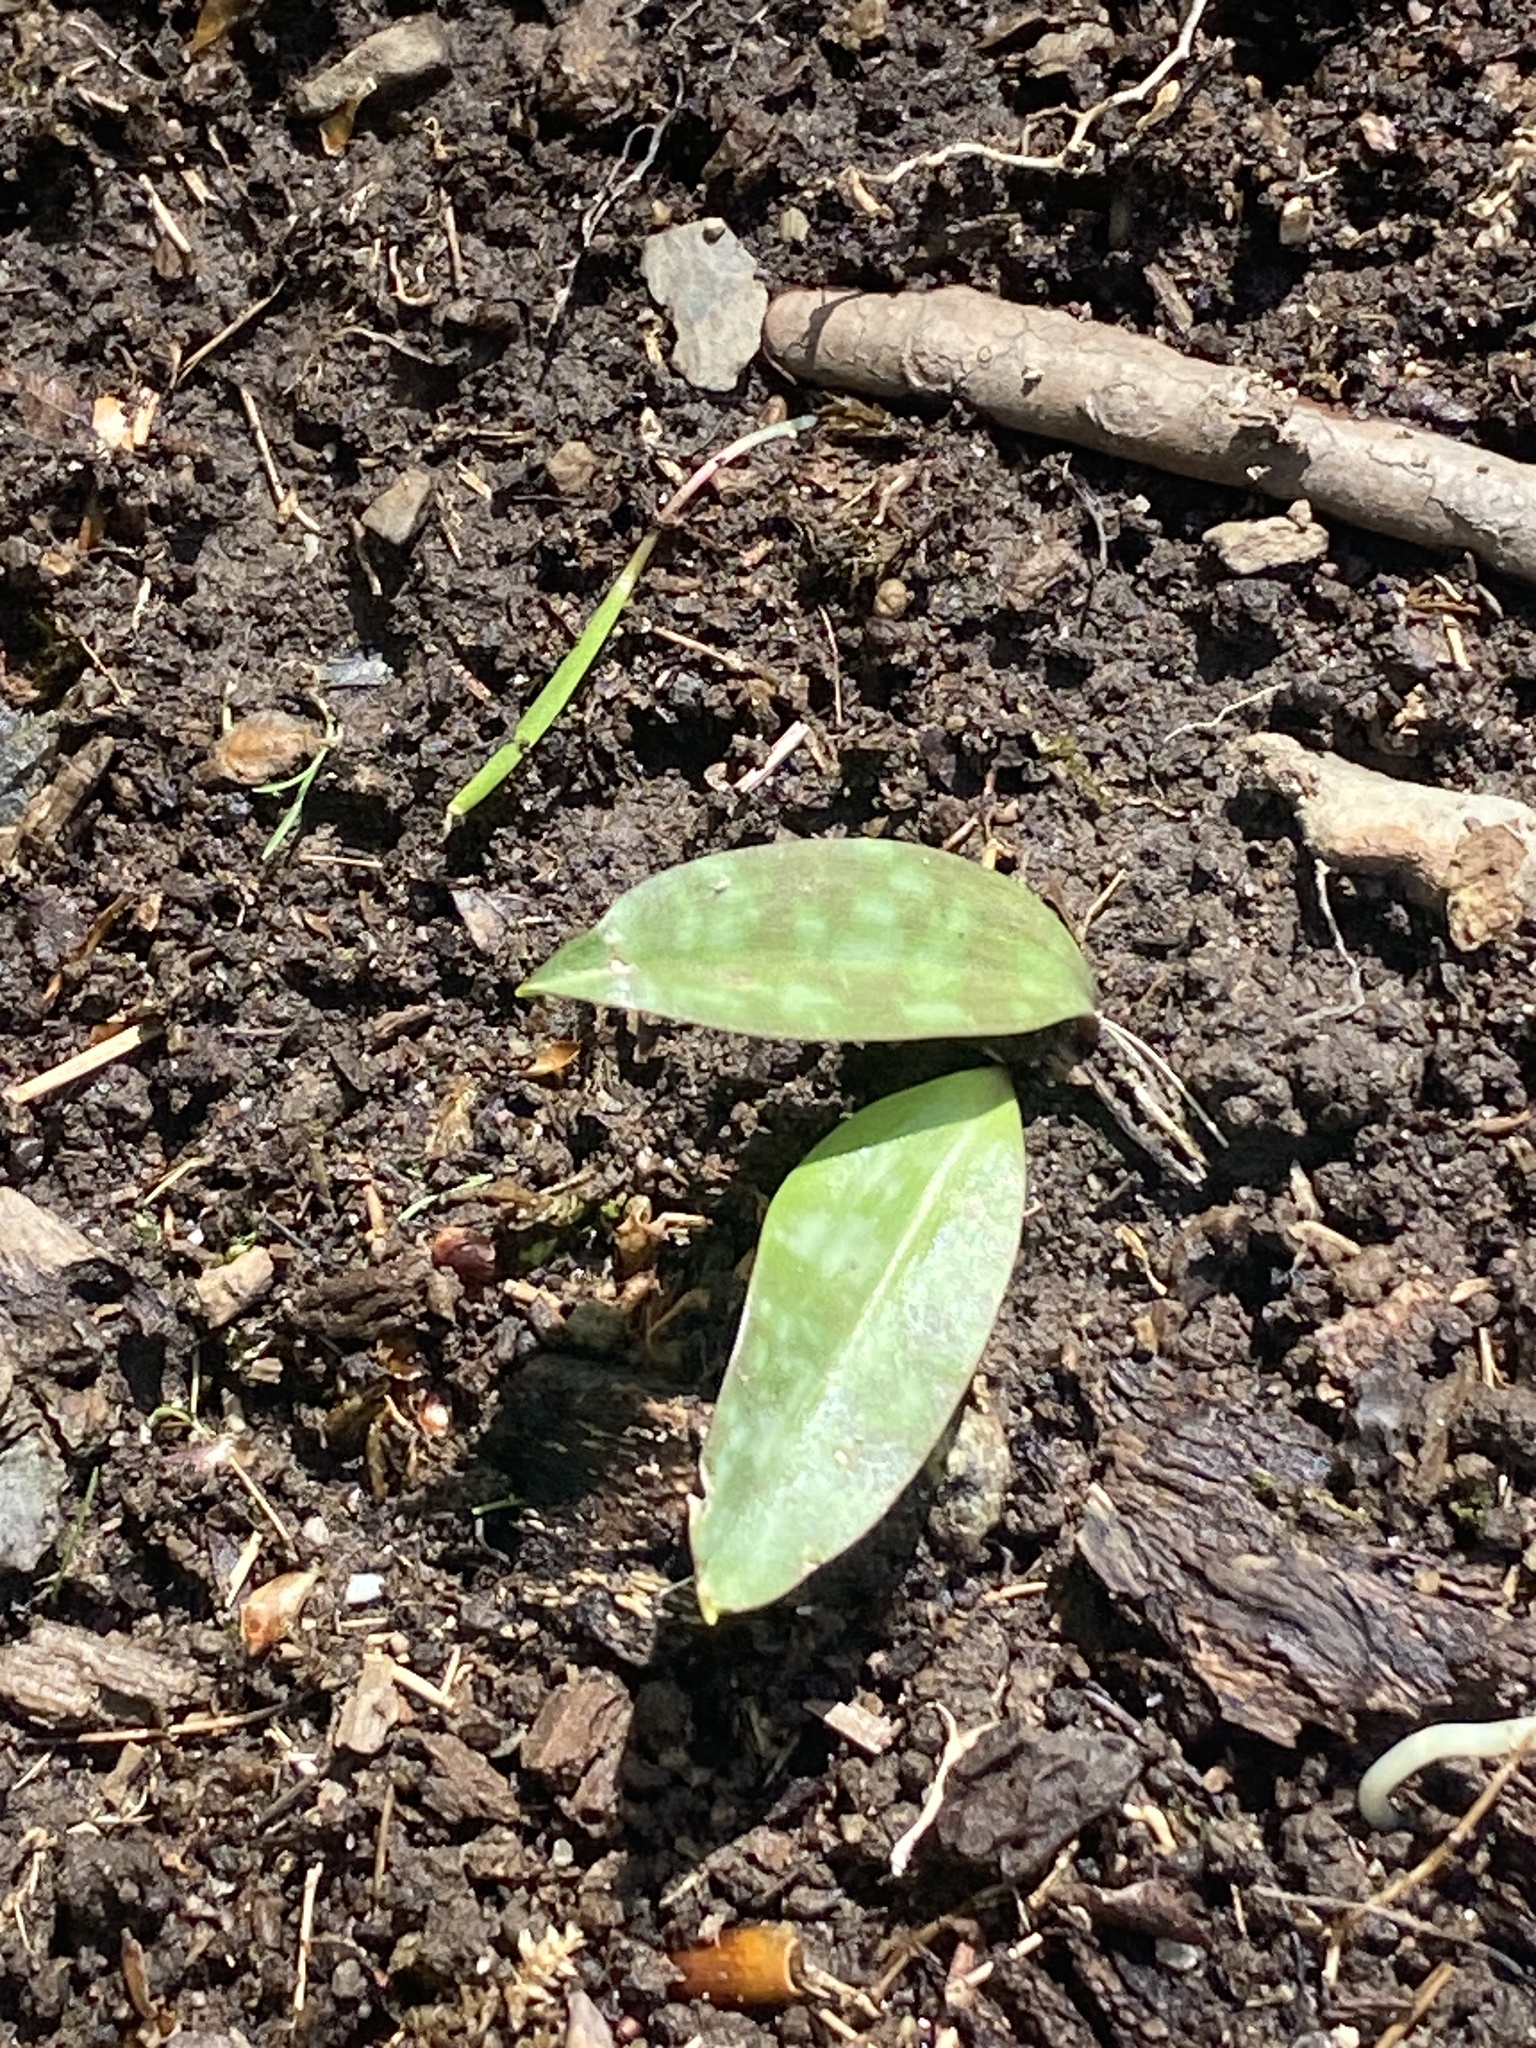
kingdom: Plantae
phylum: Tracheophyta
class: Liliopsida
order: Liliales
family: Liliaceae
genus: Erythronium
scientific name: Erythronium americanum
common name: Yellow adder's-tongue
